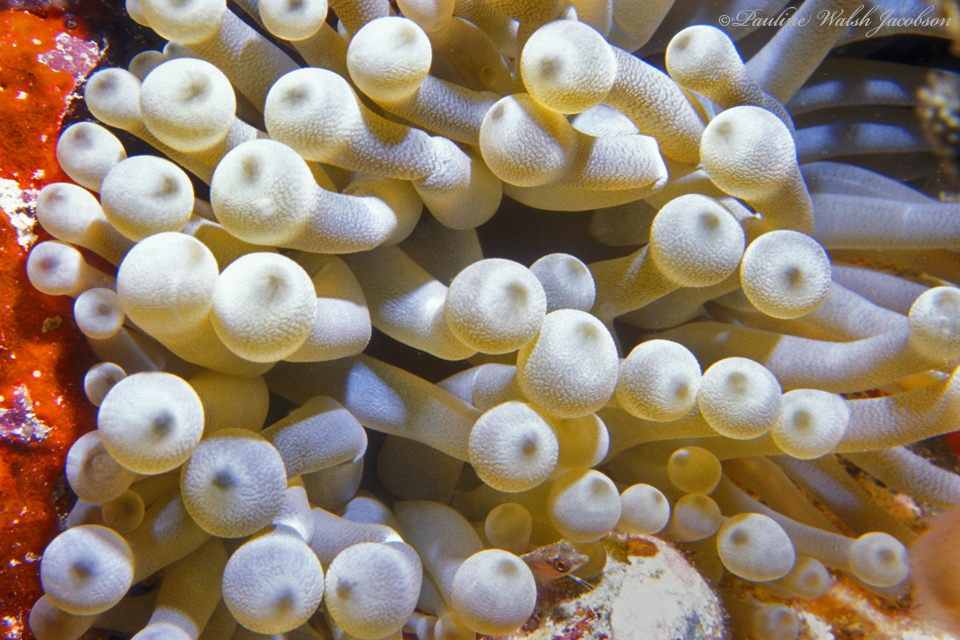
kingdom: Animalia
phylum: Cnidaria
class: Anthozoa
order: Actiniaria
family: Actiniidae
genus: Condylactis
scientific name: Condylactis gigantea
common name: Giant caribbean anemone
